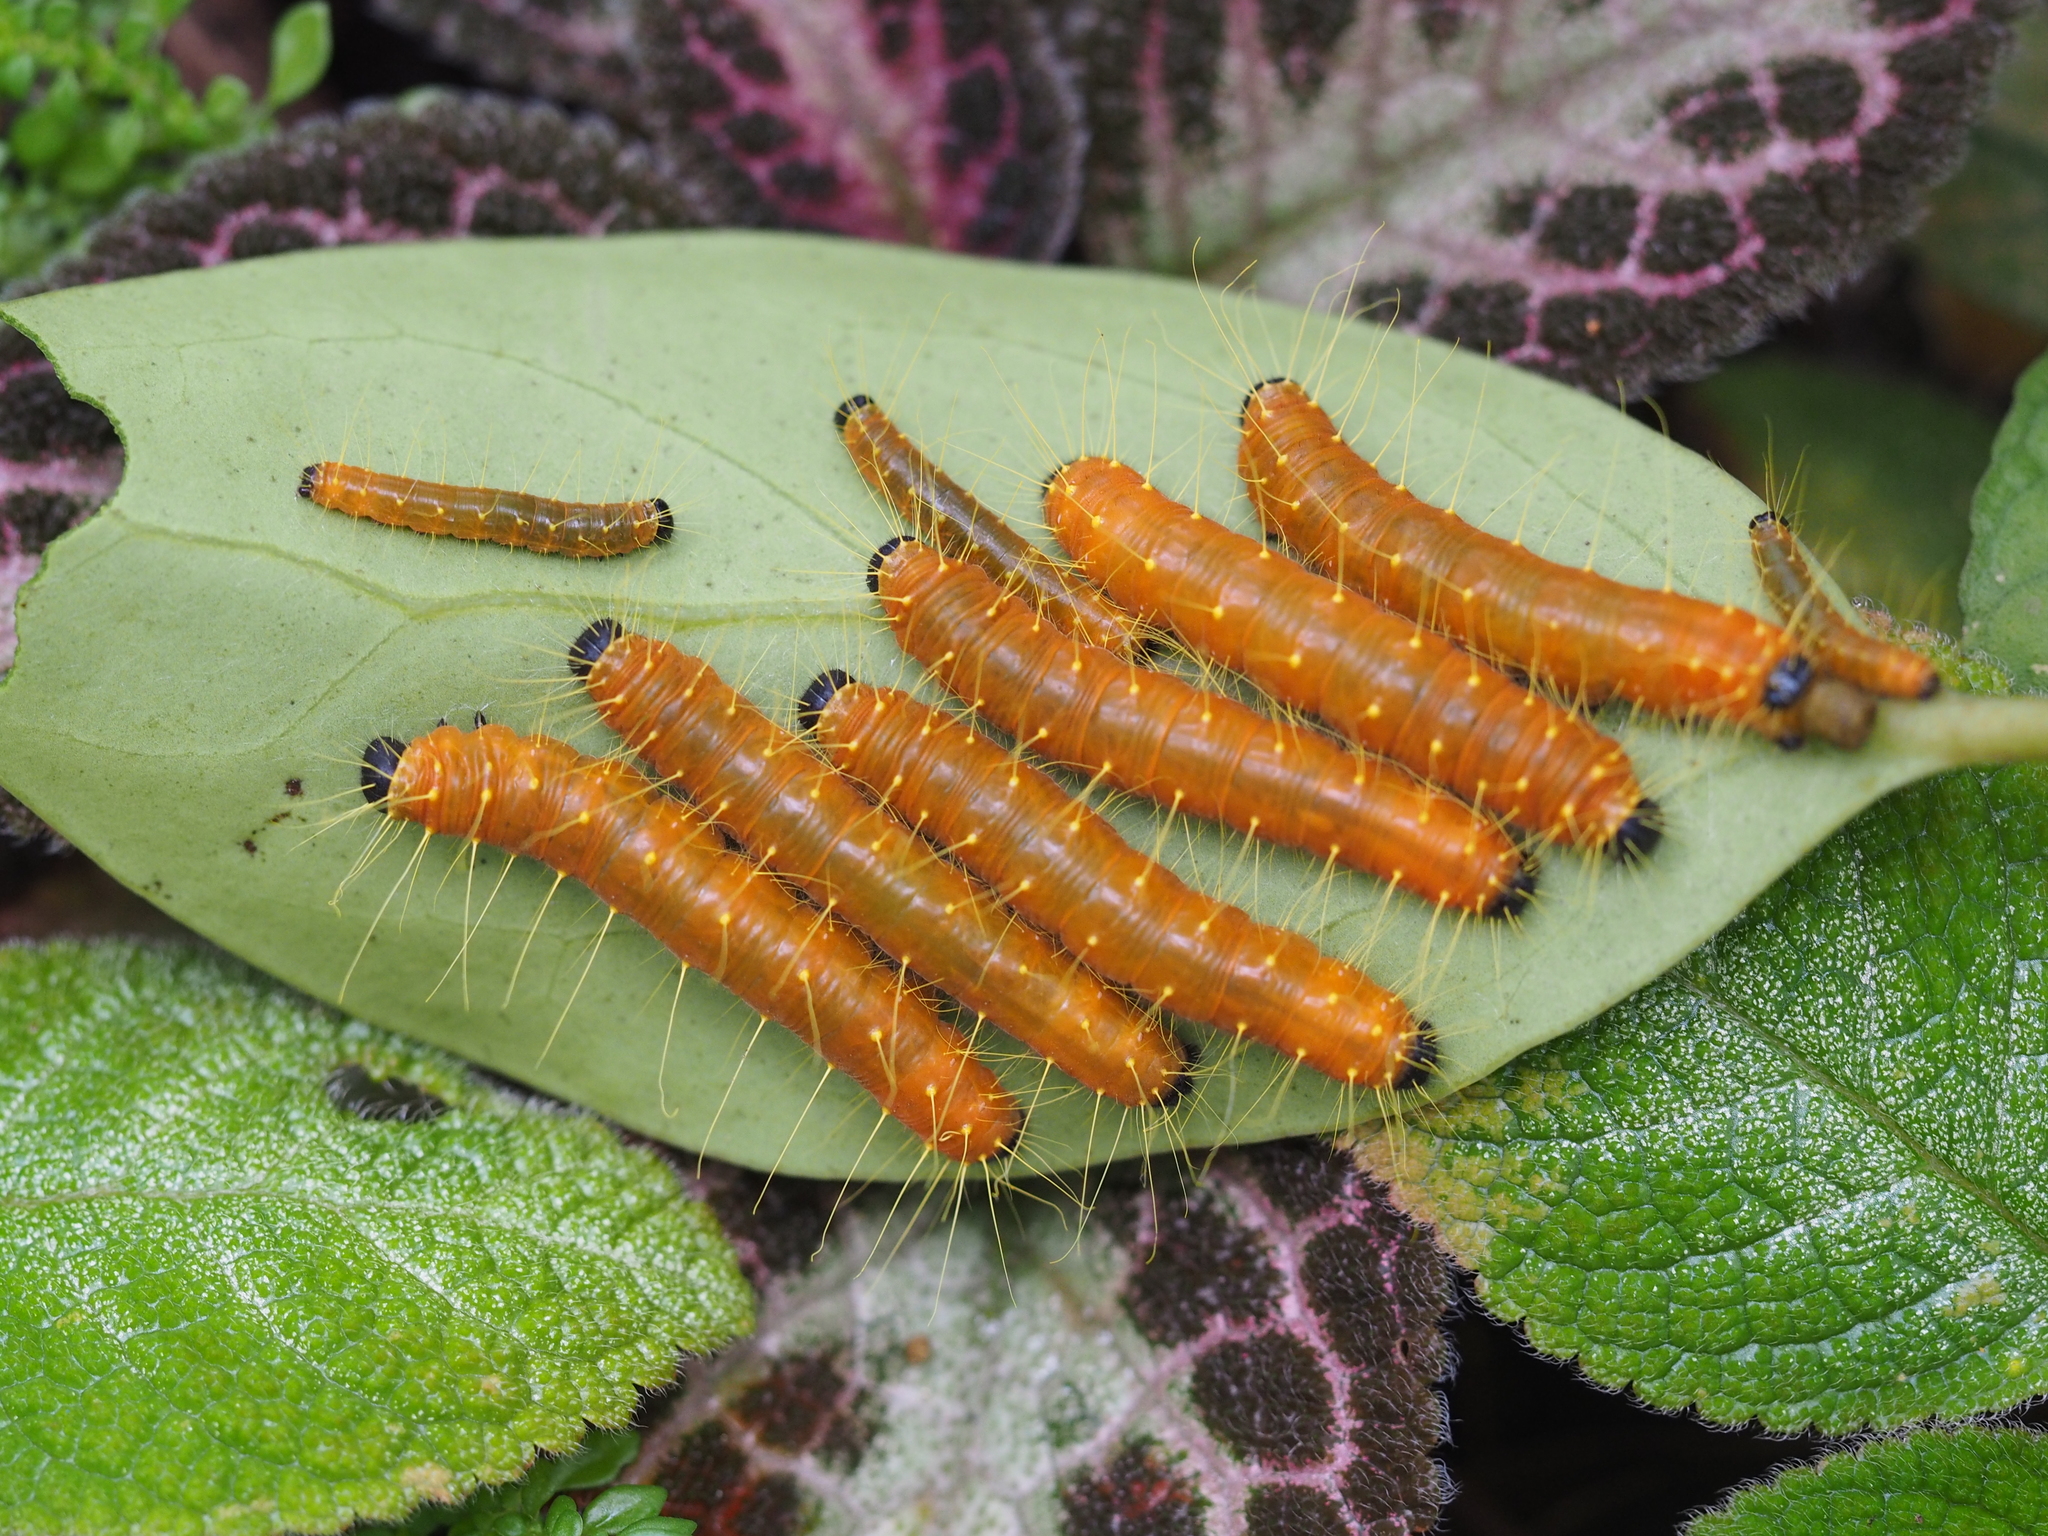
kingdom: Animalia
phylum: Arthropoda
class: Insecta
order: Lepidoptera
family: Pieridae
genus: Delias
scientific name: Delias hyparete
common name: Painted jezebel
